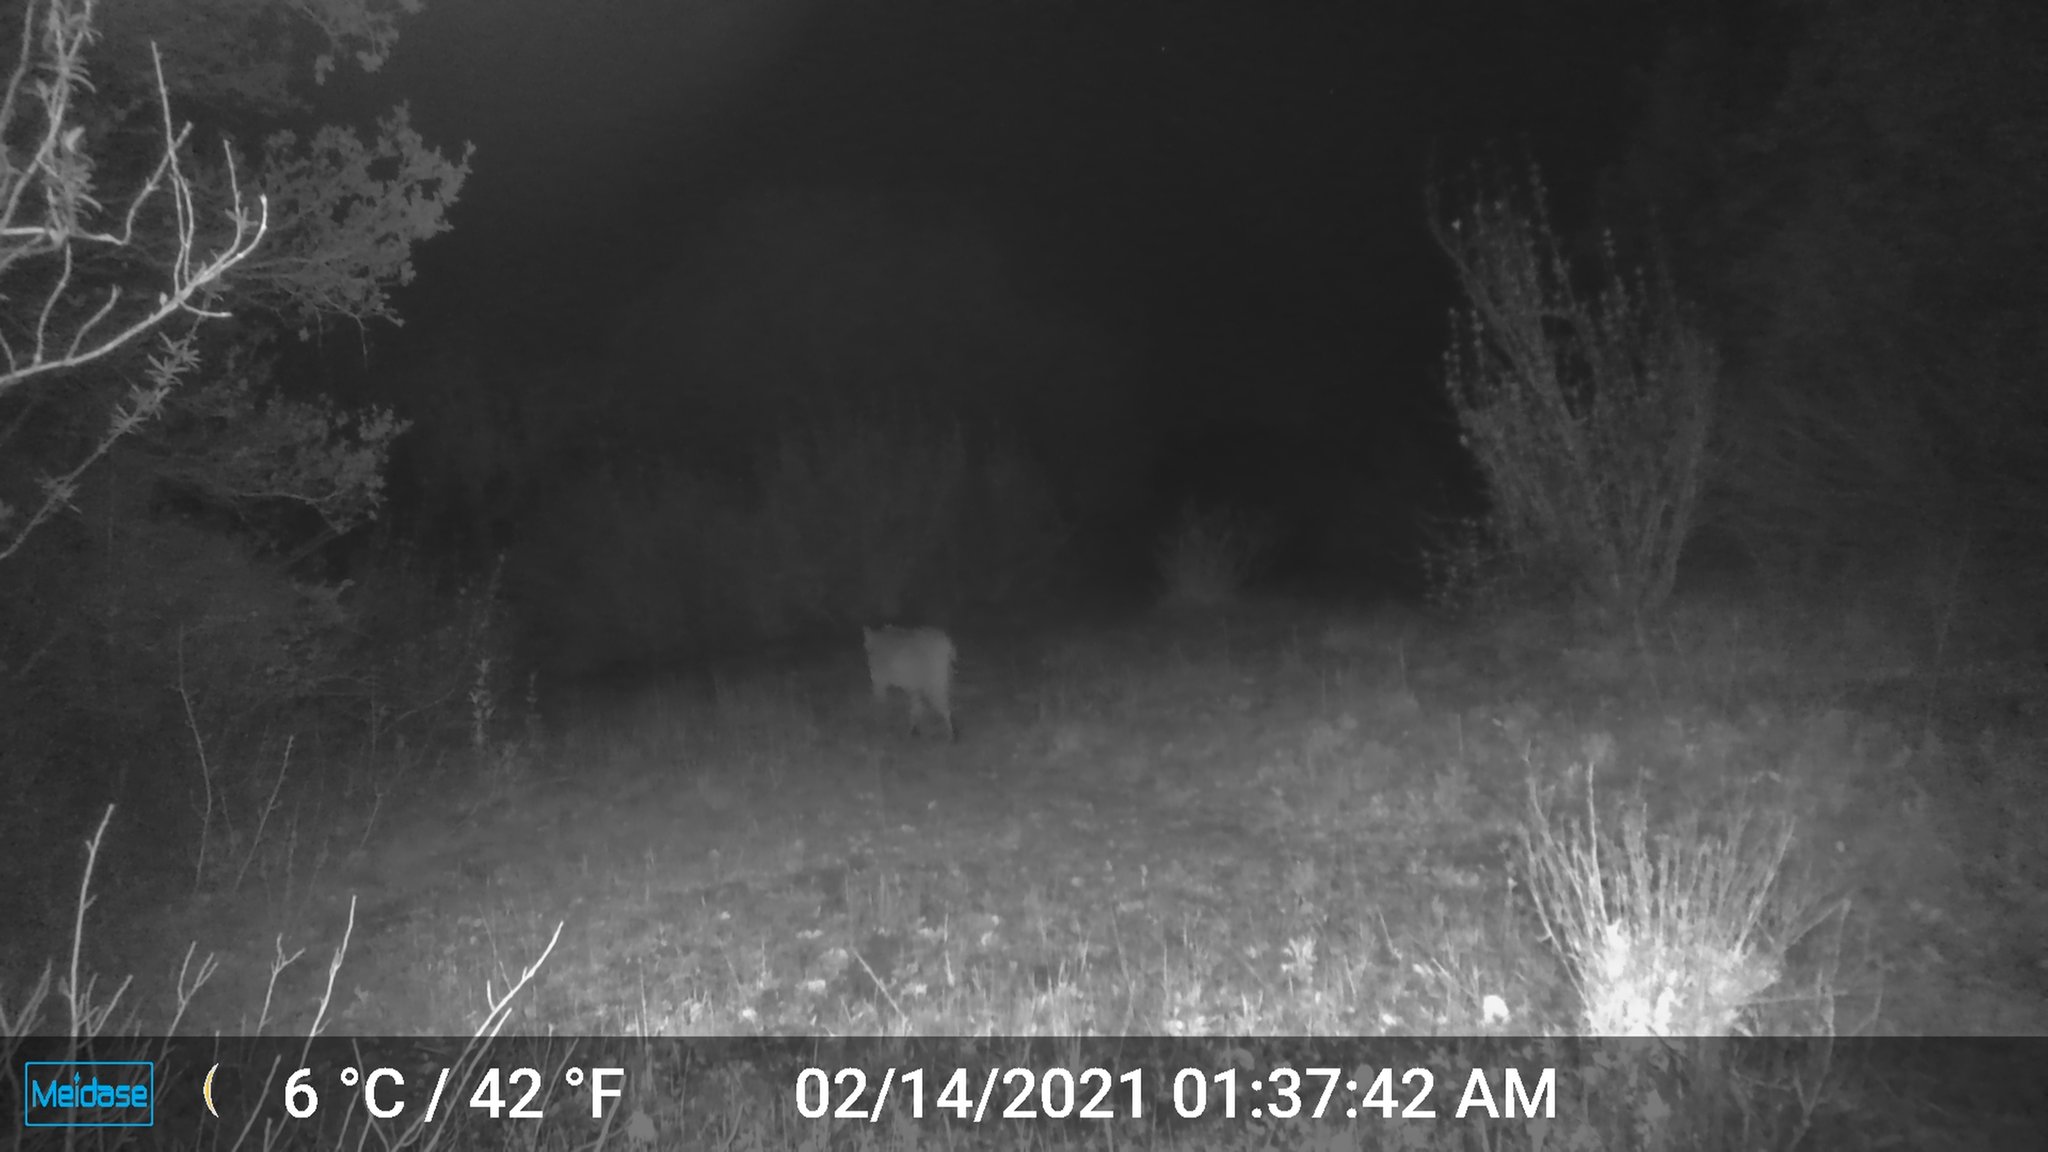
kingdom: Animalia
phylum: Chordata
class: Mammalia
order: Carnivora
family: Felidae
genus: Lynx
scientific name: Lynx rufus
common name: Bobcat
